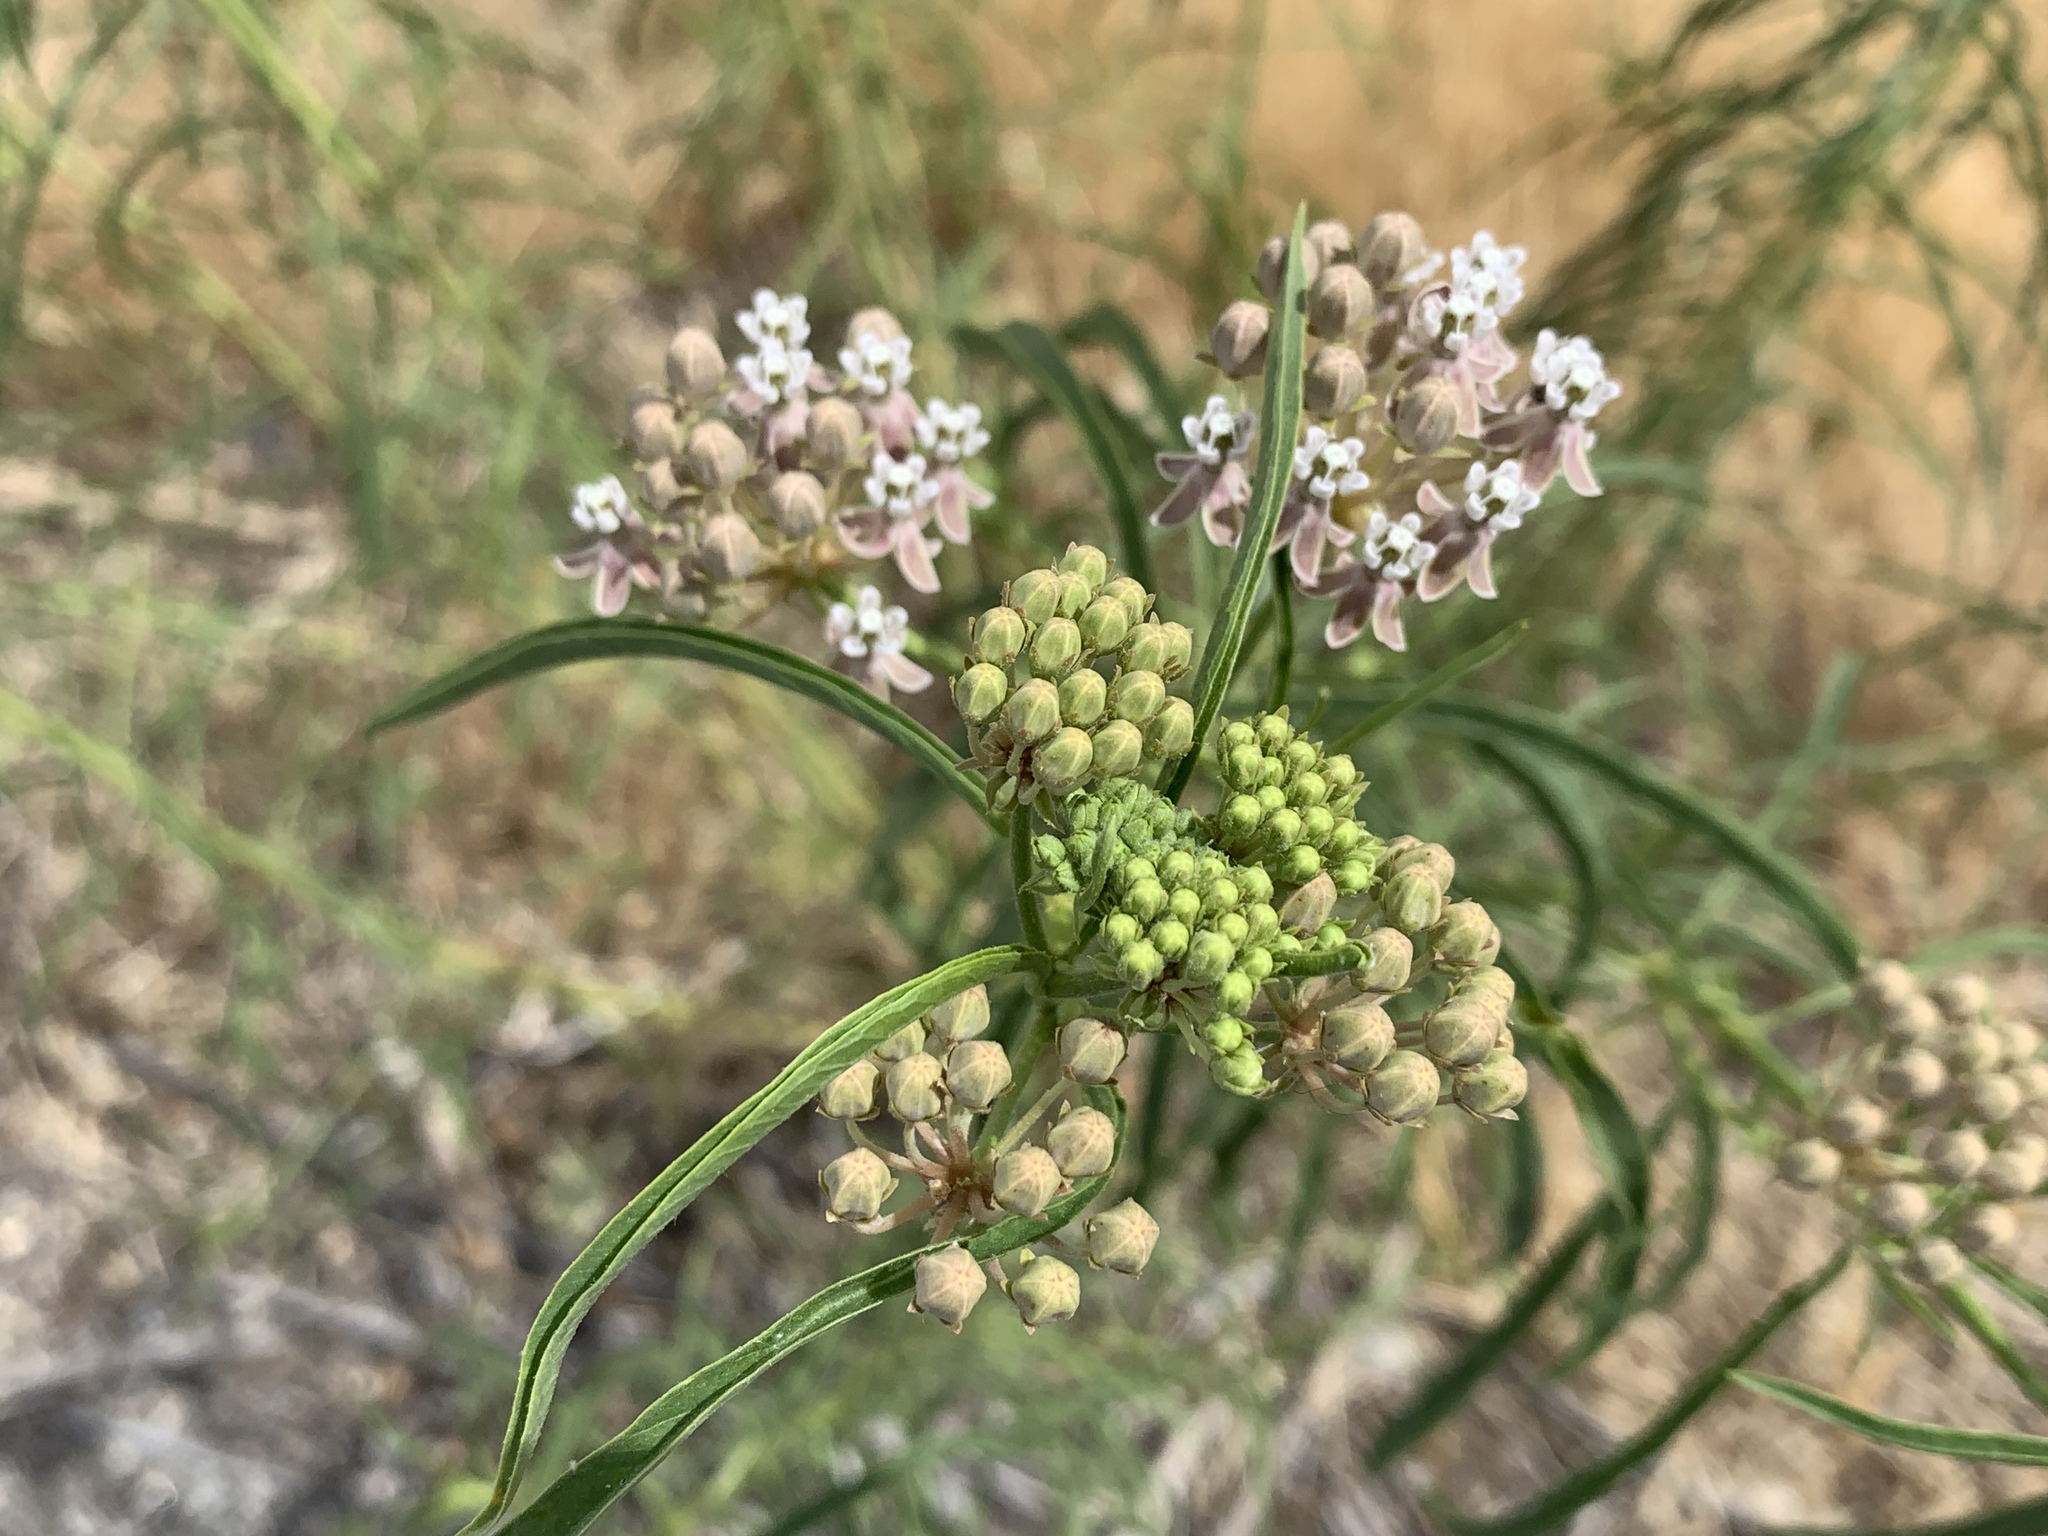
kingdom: Plantae
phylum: Tracheophyta
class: Magnoliopsida
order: Gentianales
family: Apocynaceae
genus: Asclepias
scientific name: Asclepias fascicularis
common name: Mexican milkweed
